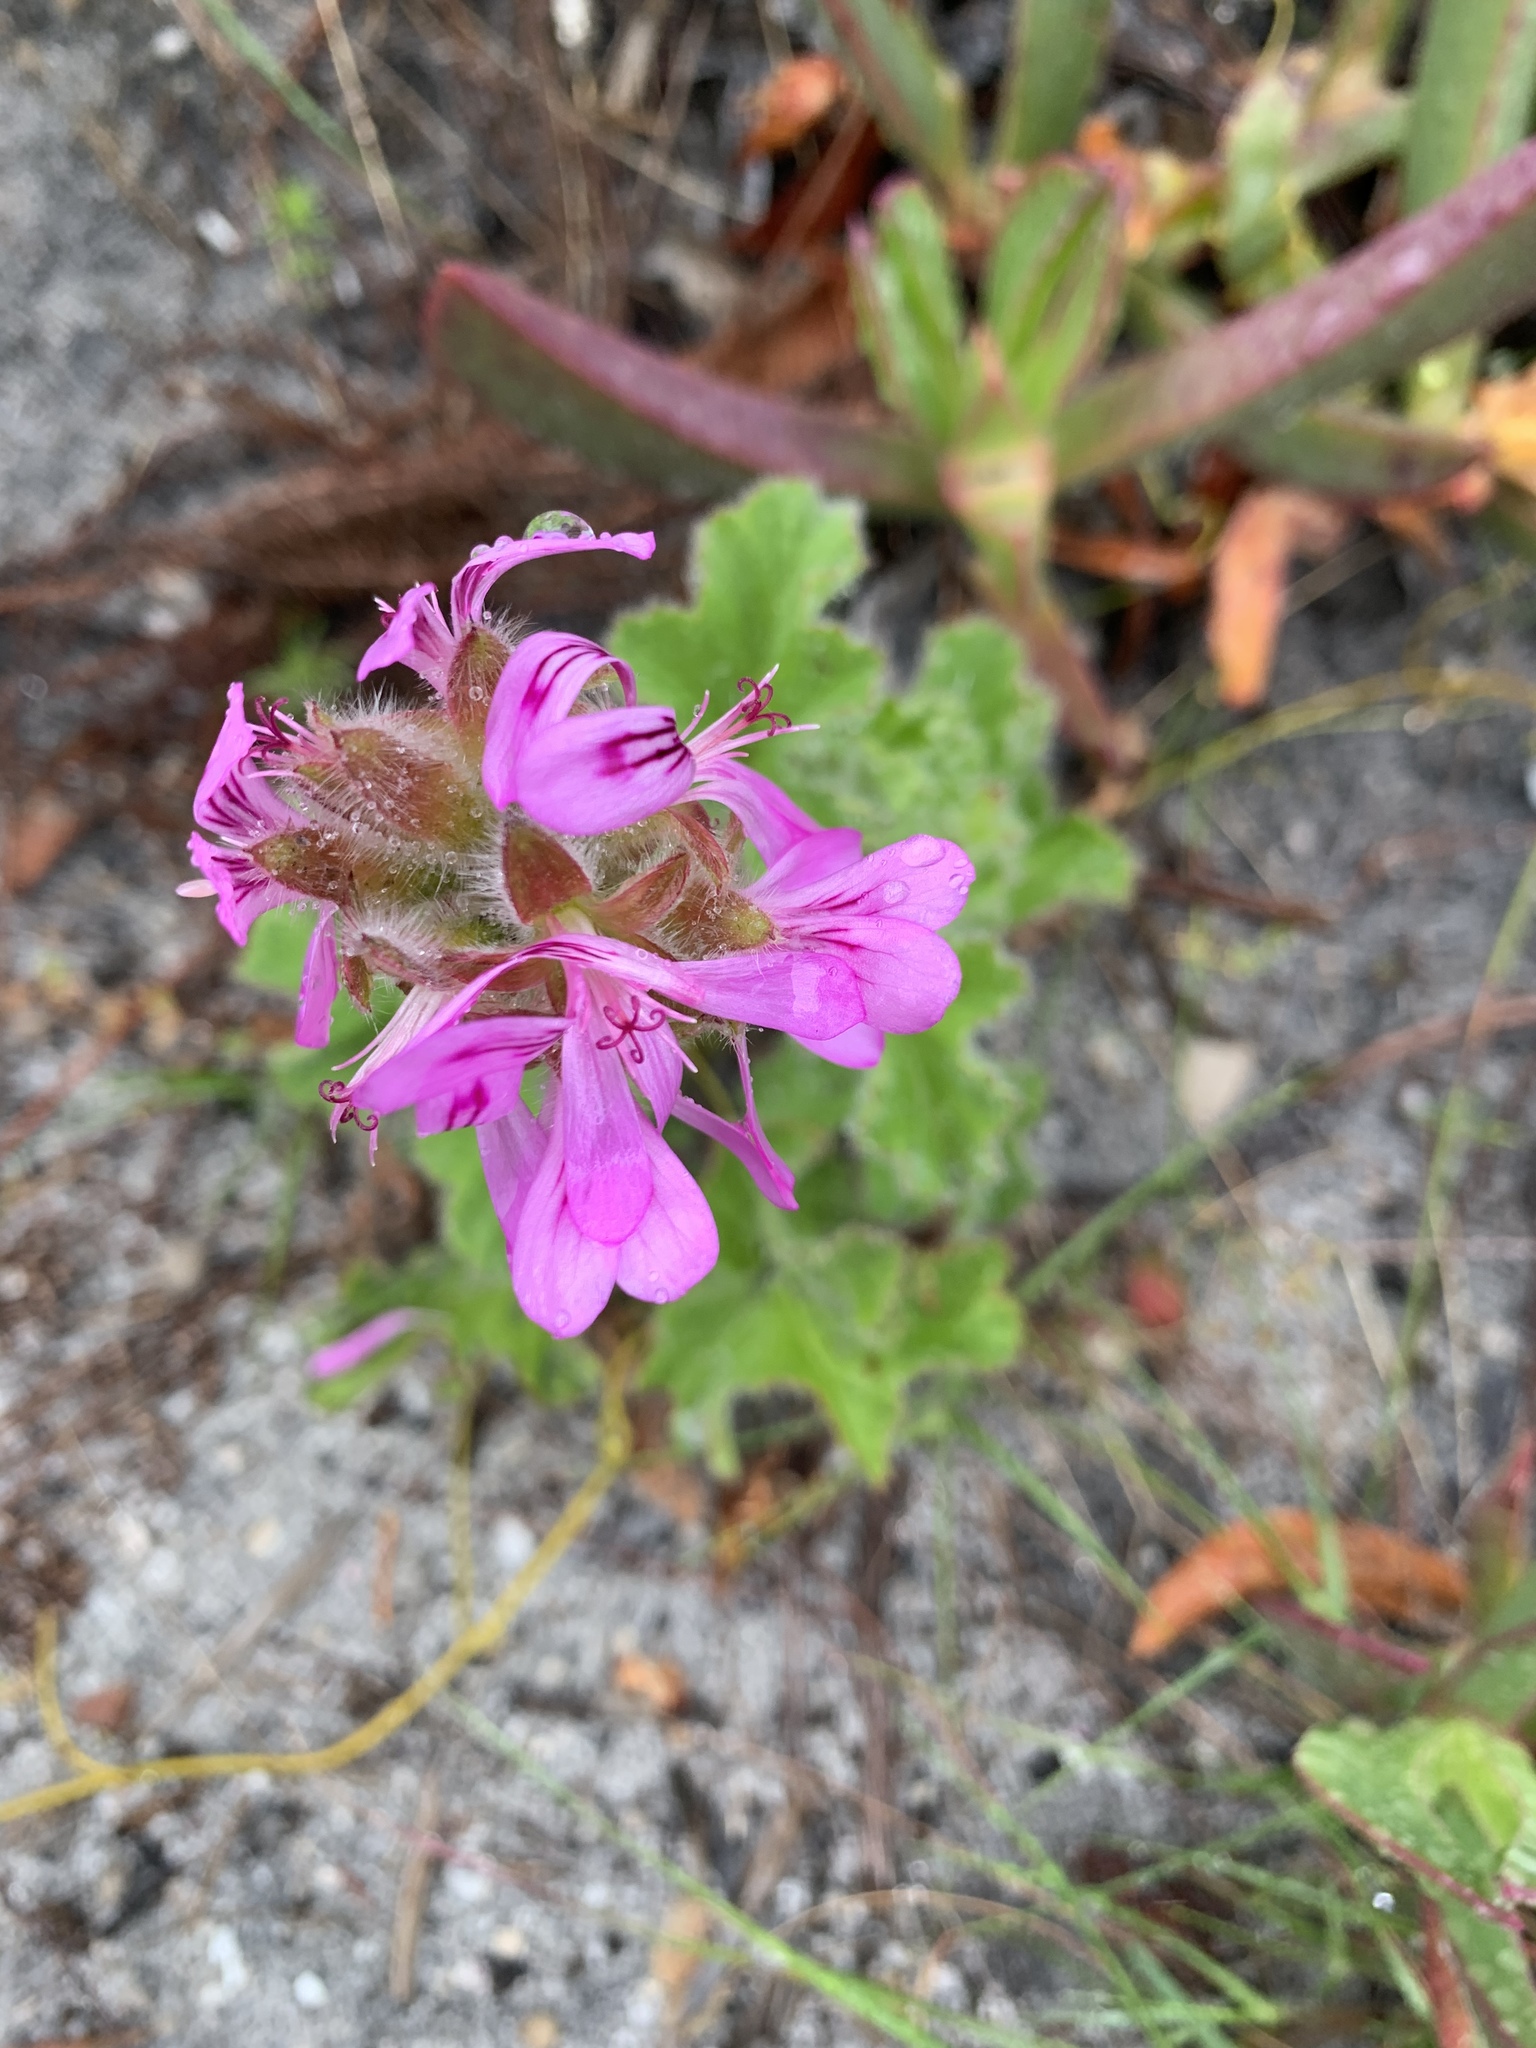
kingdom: Plantae
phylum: Tracheophyta
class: Magnoliopsida
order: Geraniales
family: Geraniaceae
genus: Pelargonium
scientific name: Pelargonium capitatum
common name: Rose scented geranium
